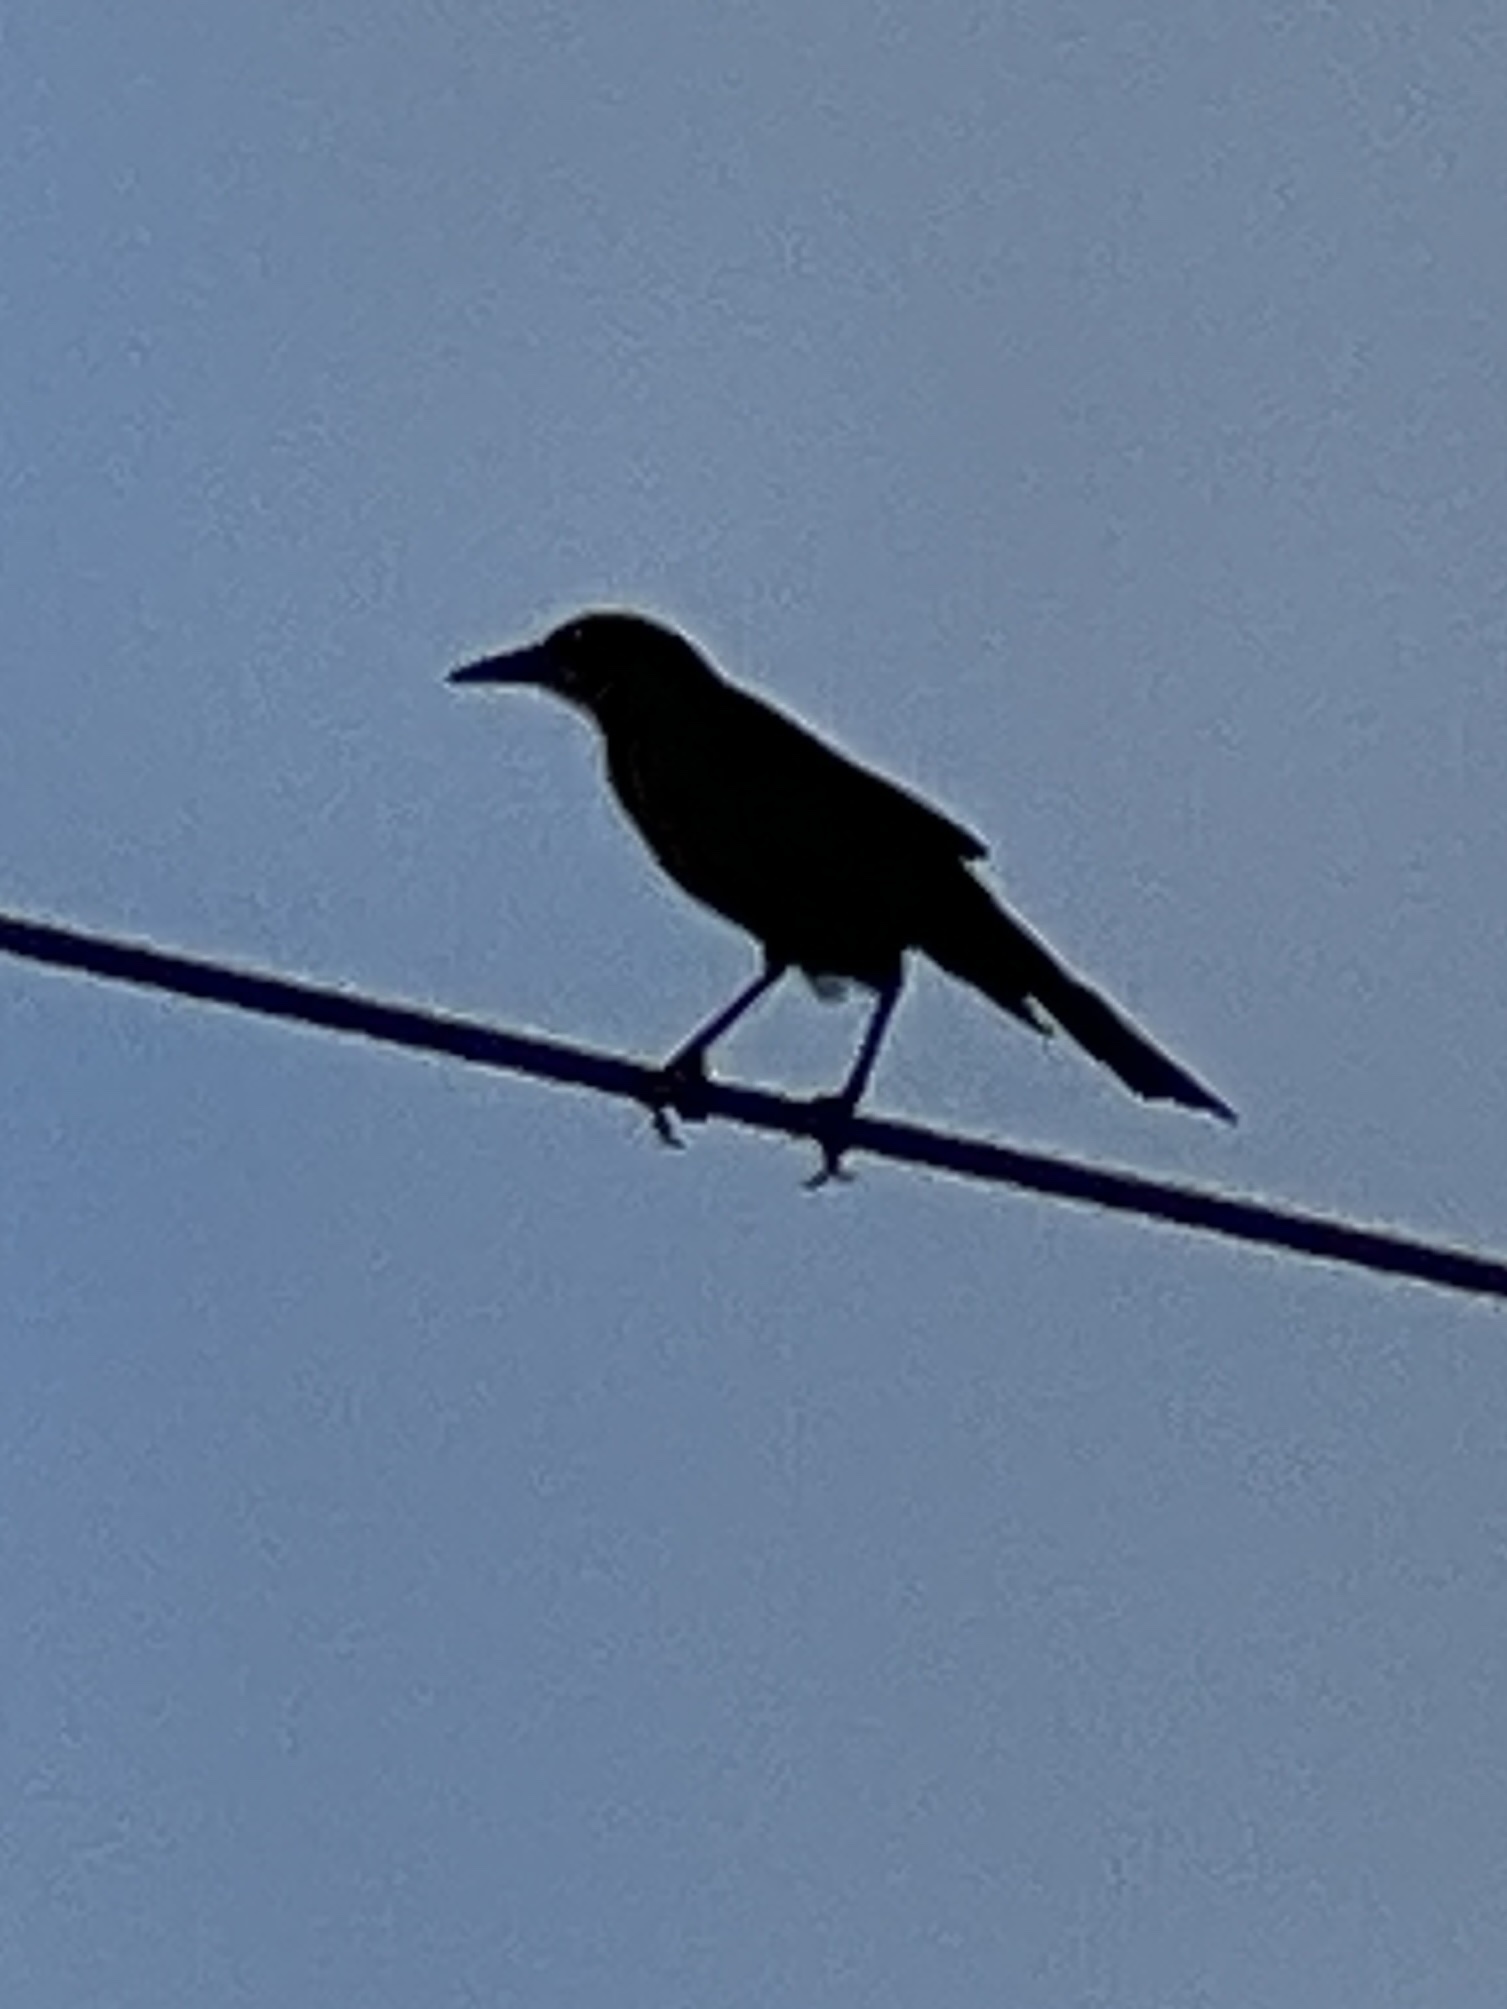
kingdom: Animalia
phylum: Chordata
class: Aves
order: Passeriformes
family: Icteridae
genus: Quiscalus
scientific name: Quiscalus mexicanus
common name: Great-tailed grackle
